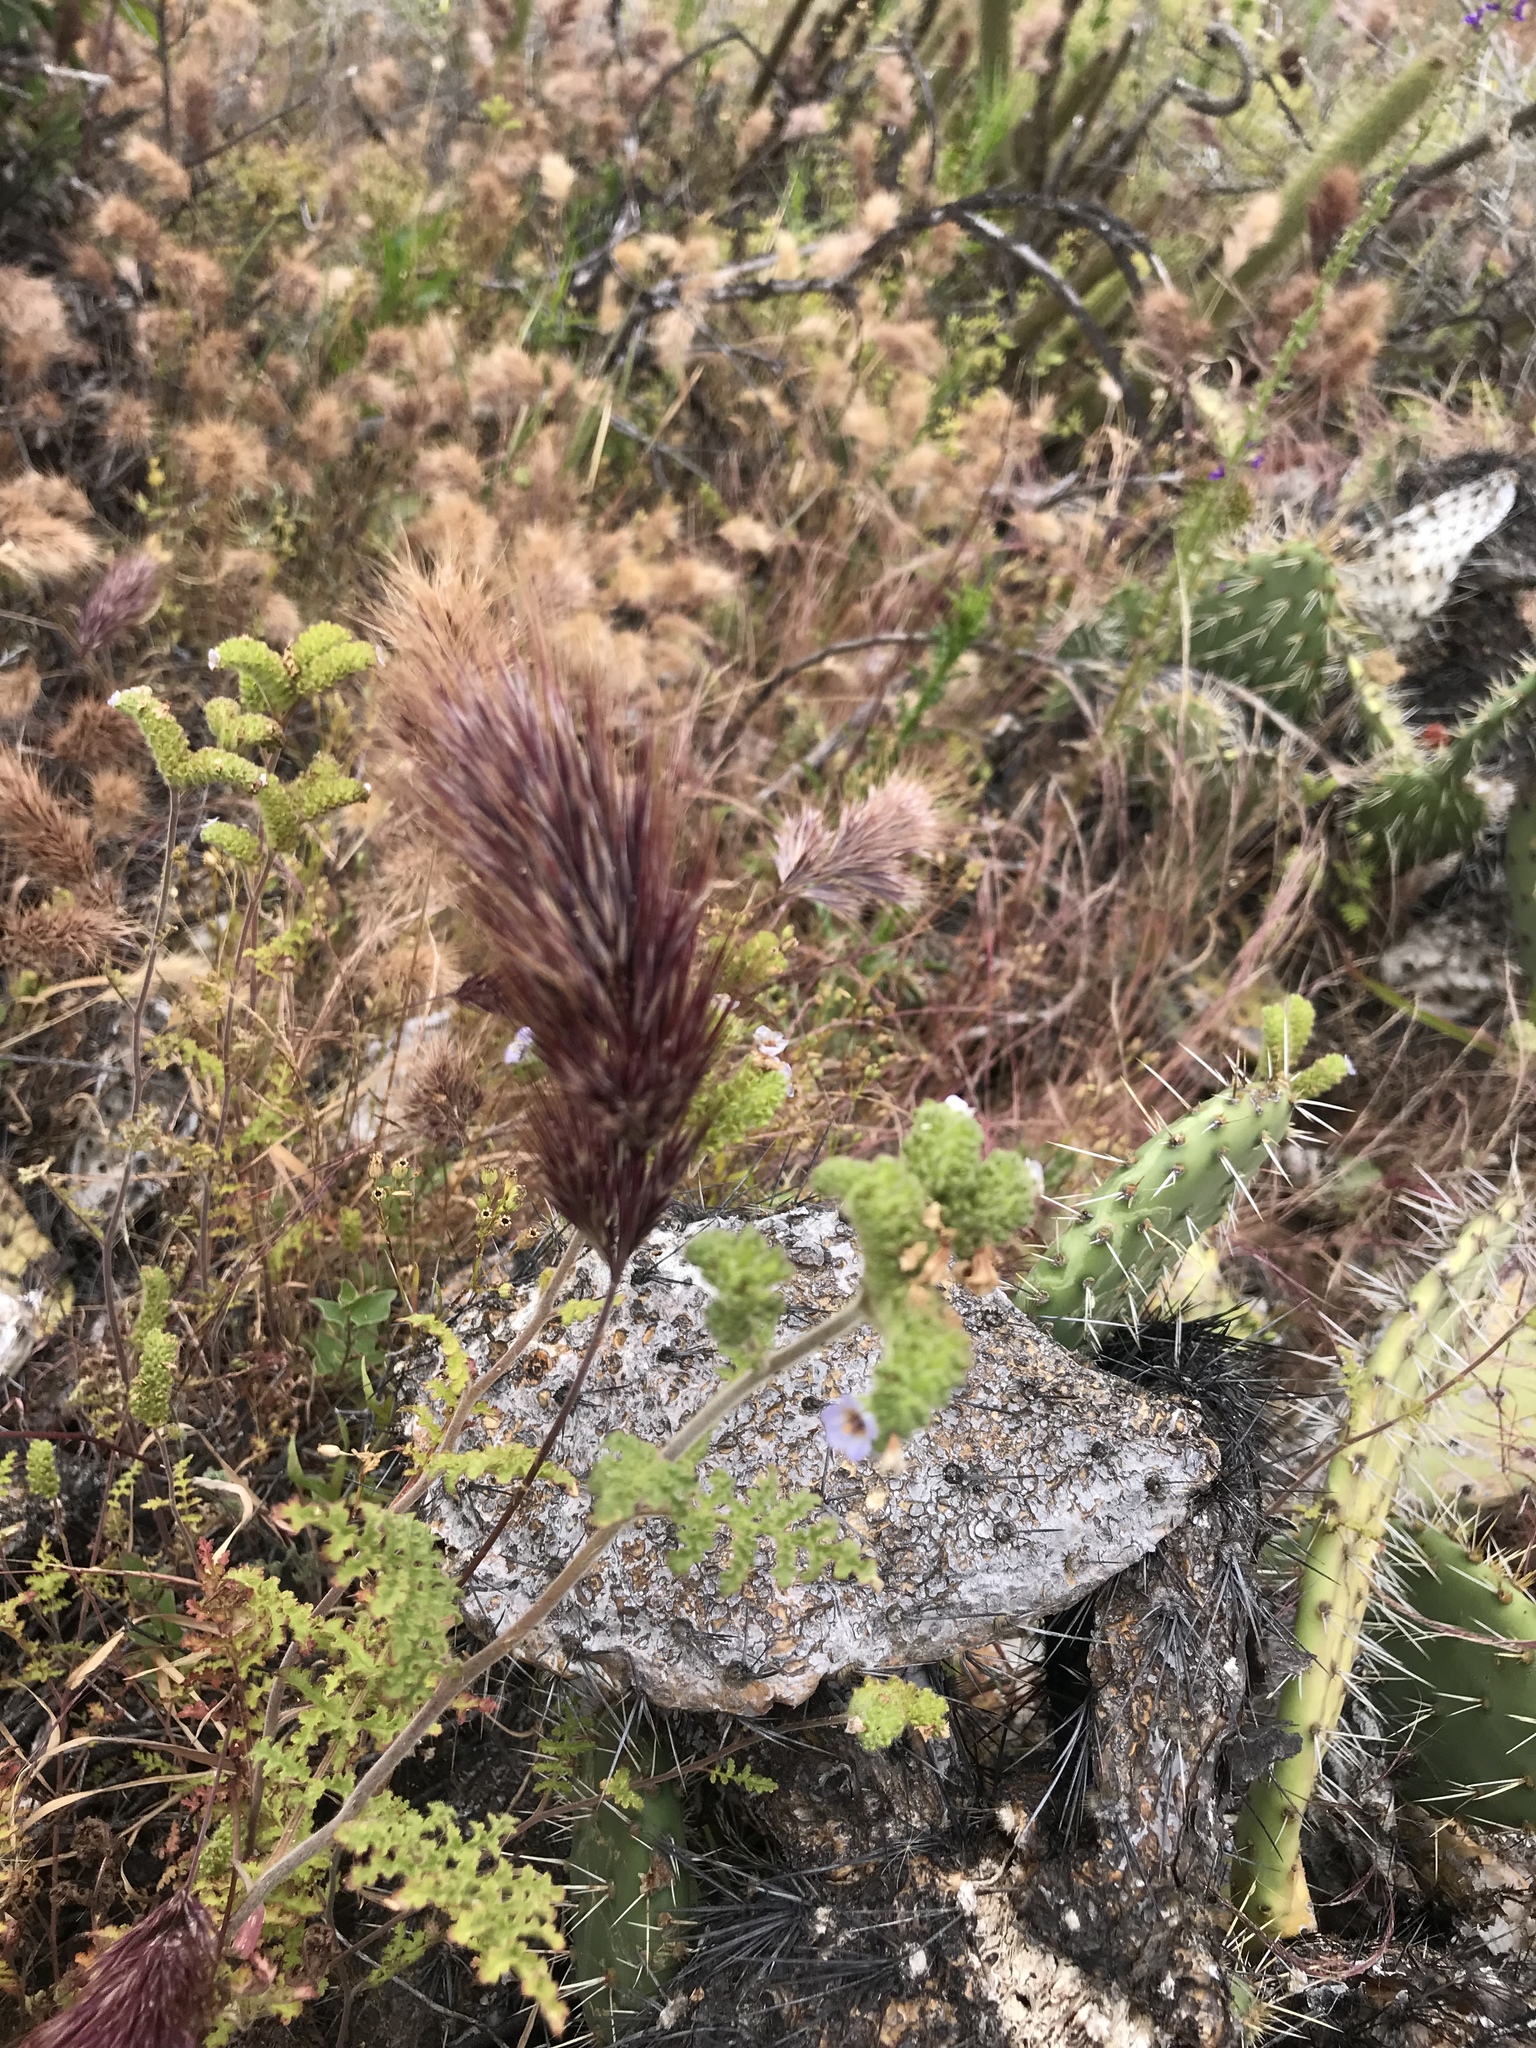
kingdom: Plantae
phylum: Tracheophyta
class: Liliopsida
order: Poales
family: Poaceae
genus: Bromus
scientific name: Bromus rubens
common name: Red brome
